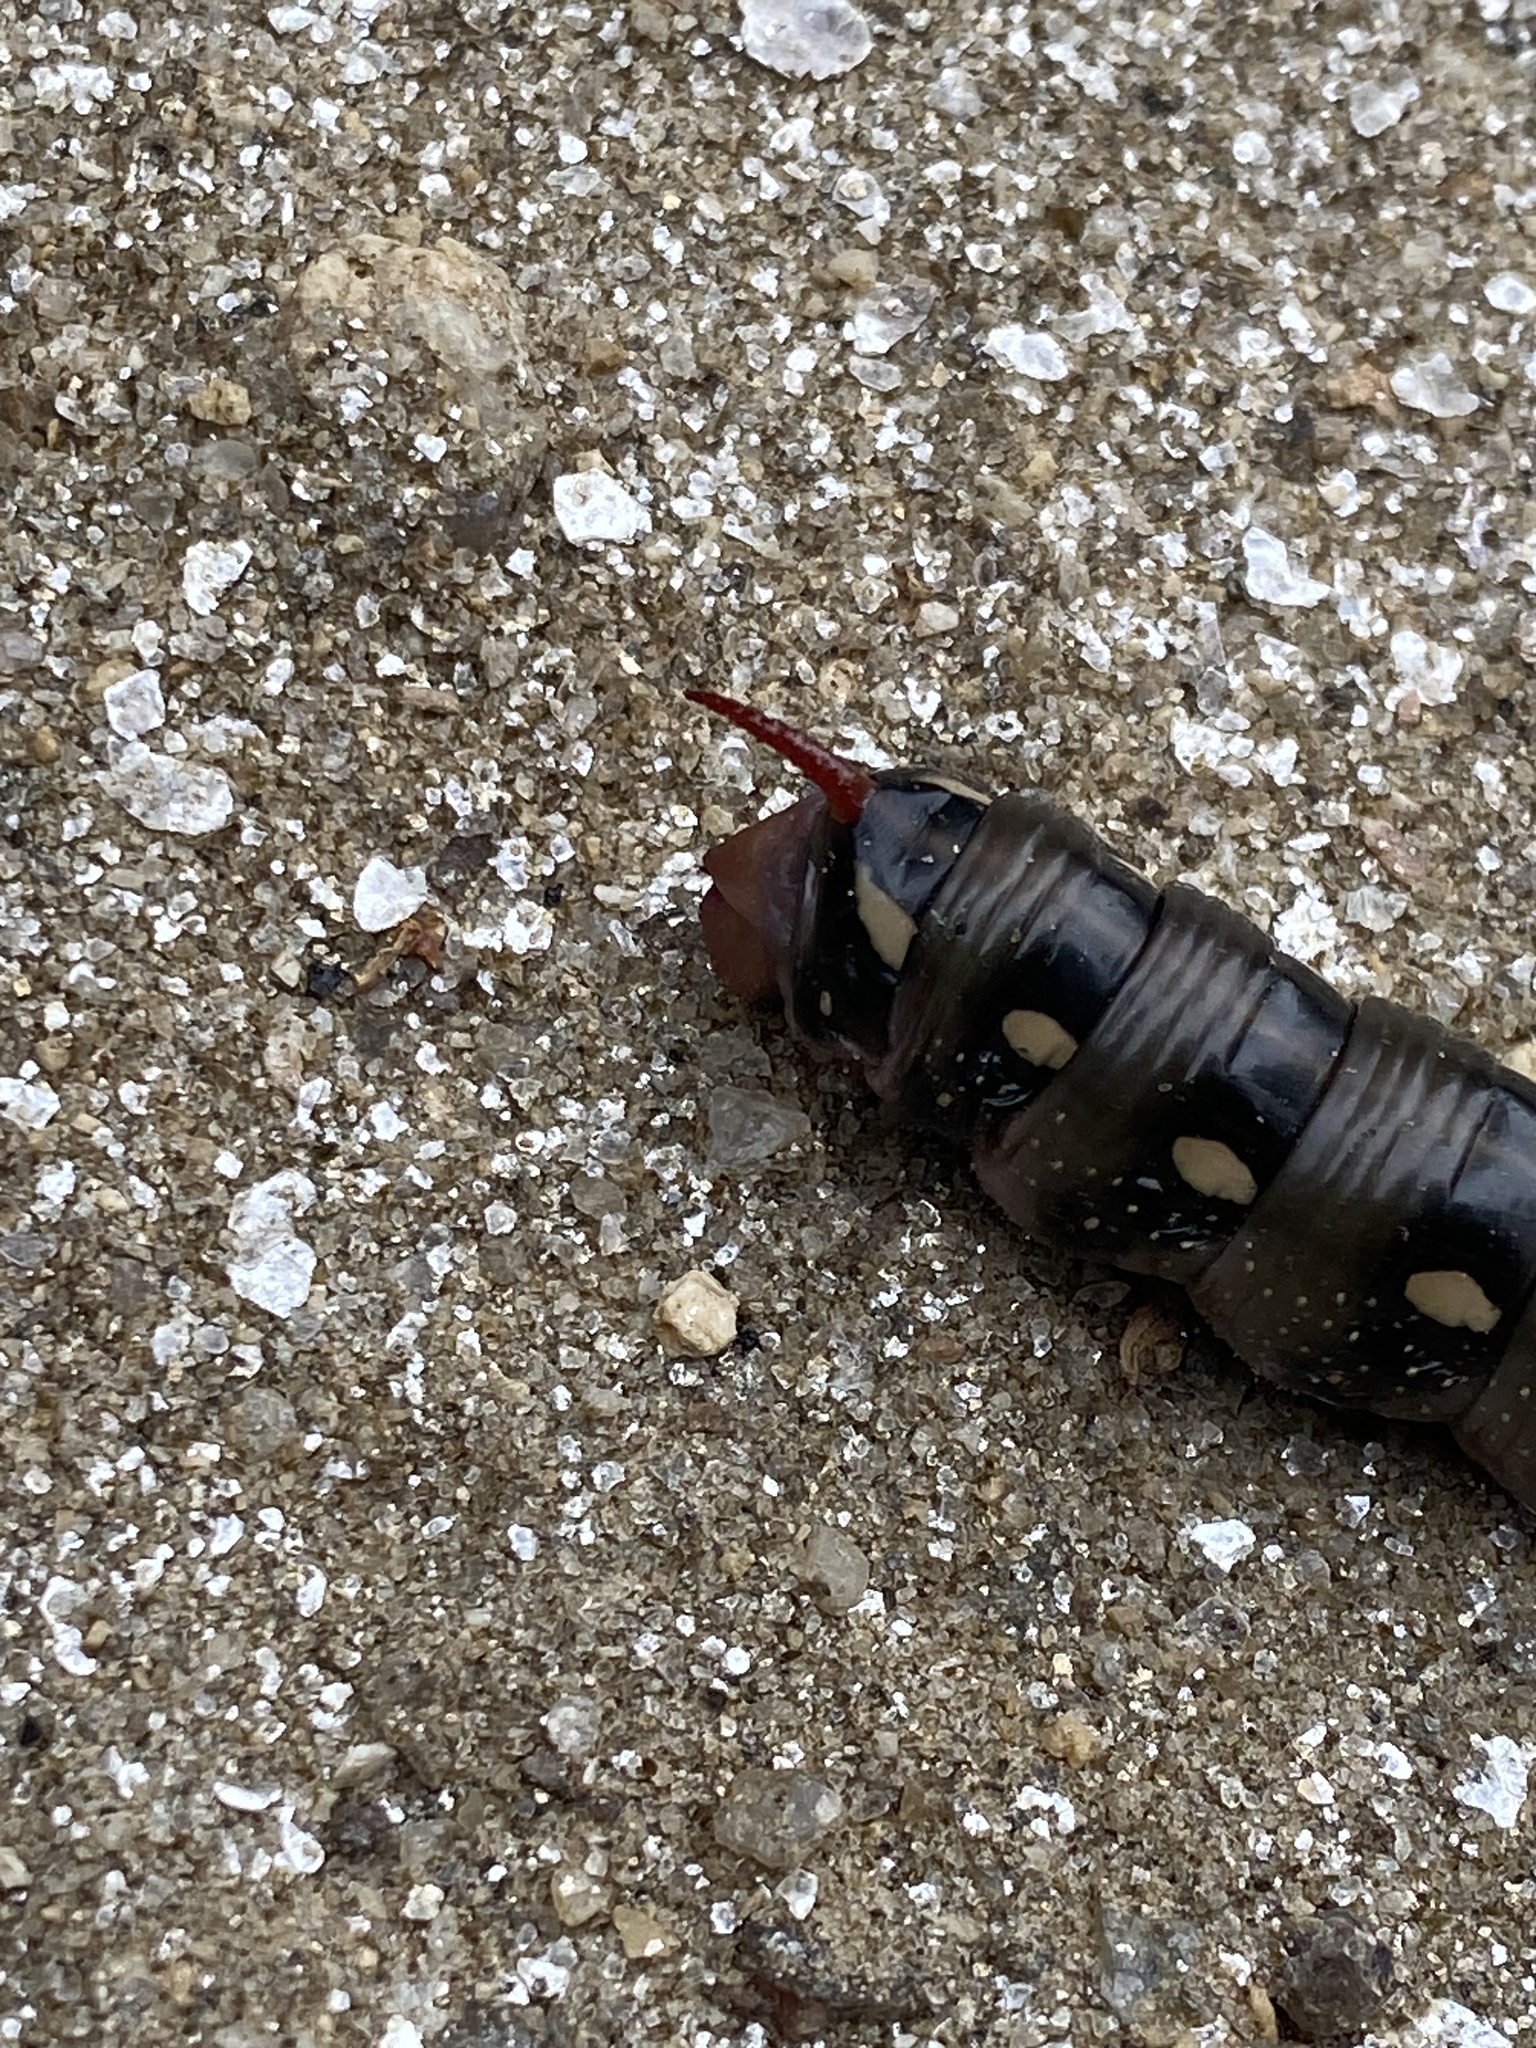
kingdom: Animalia
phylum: Arthropoda
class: Insecta
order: Lepidoptera
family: Sphingidae
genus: Hyles
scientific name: Hyles gallii
